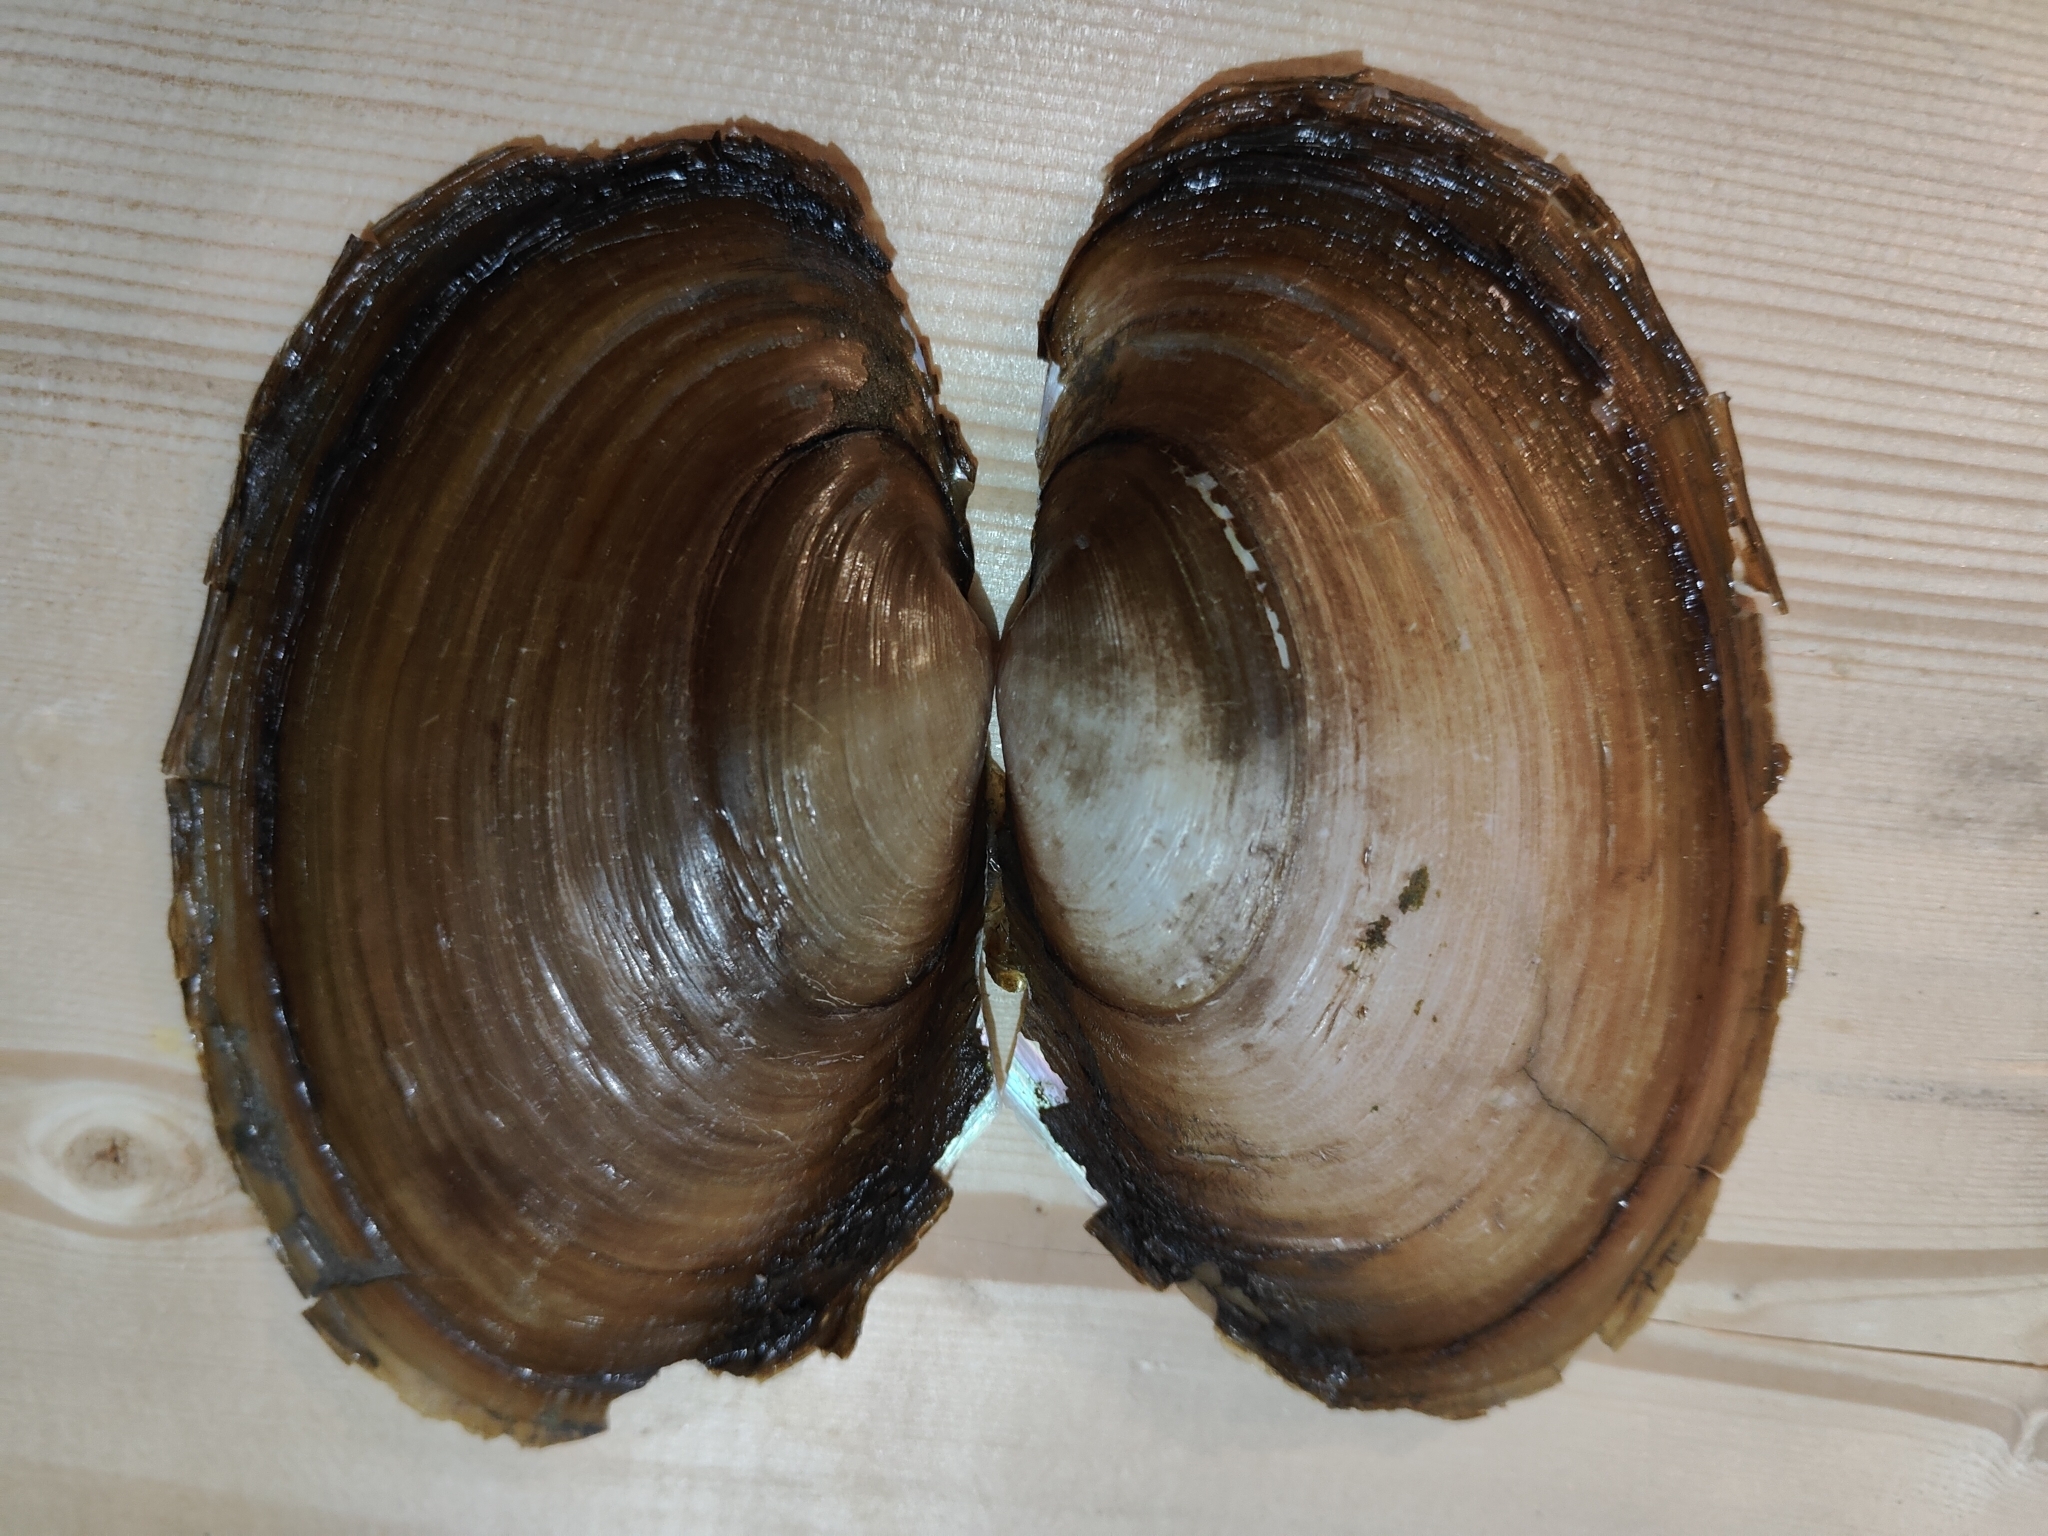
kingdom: Animalia
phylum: Mollusca
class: Bivalvia
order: Unionida
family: Unionidae
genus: Potamilus
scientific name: Potamilus ohiensis
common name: Pink papershell
